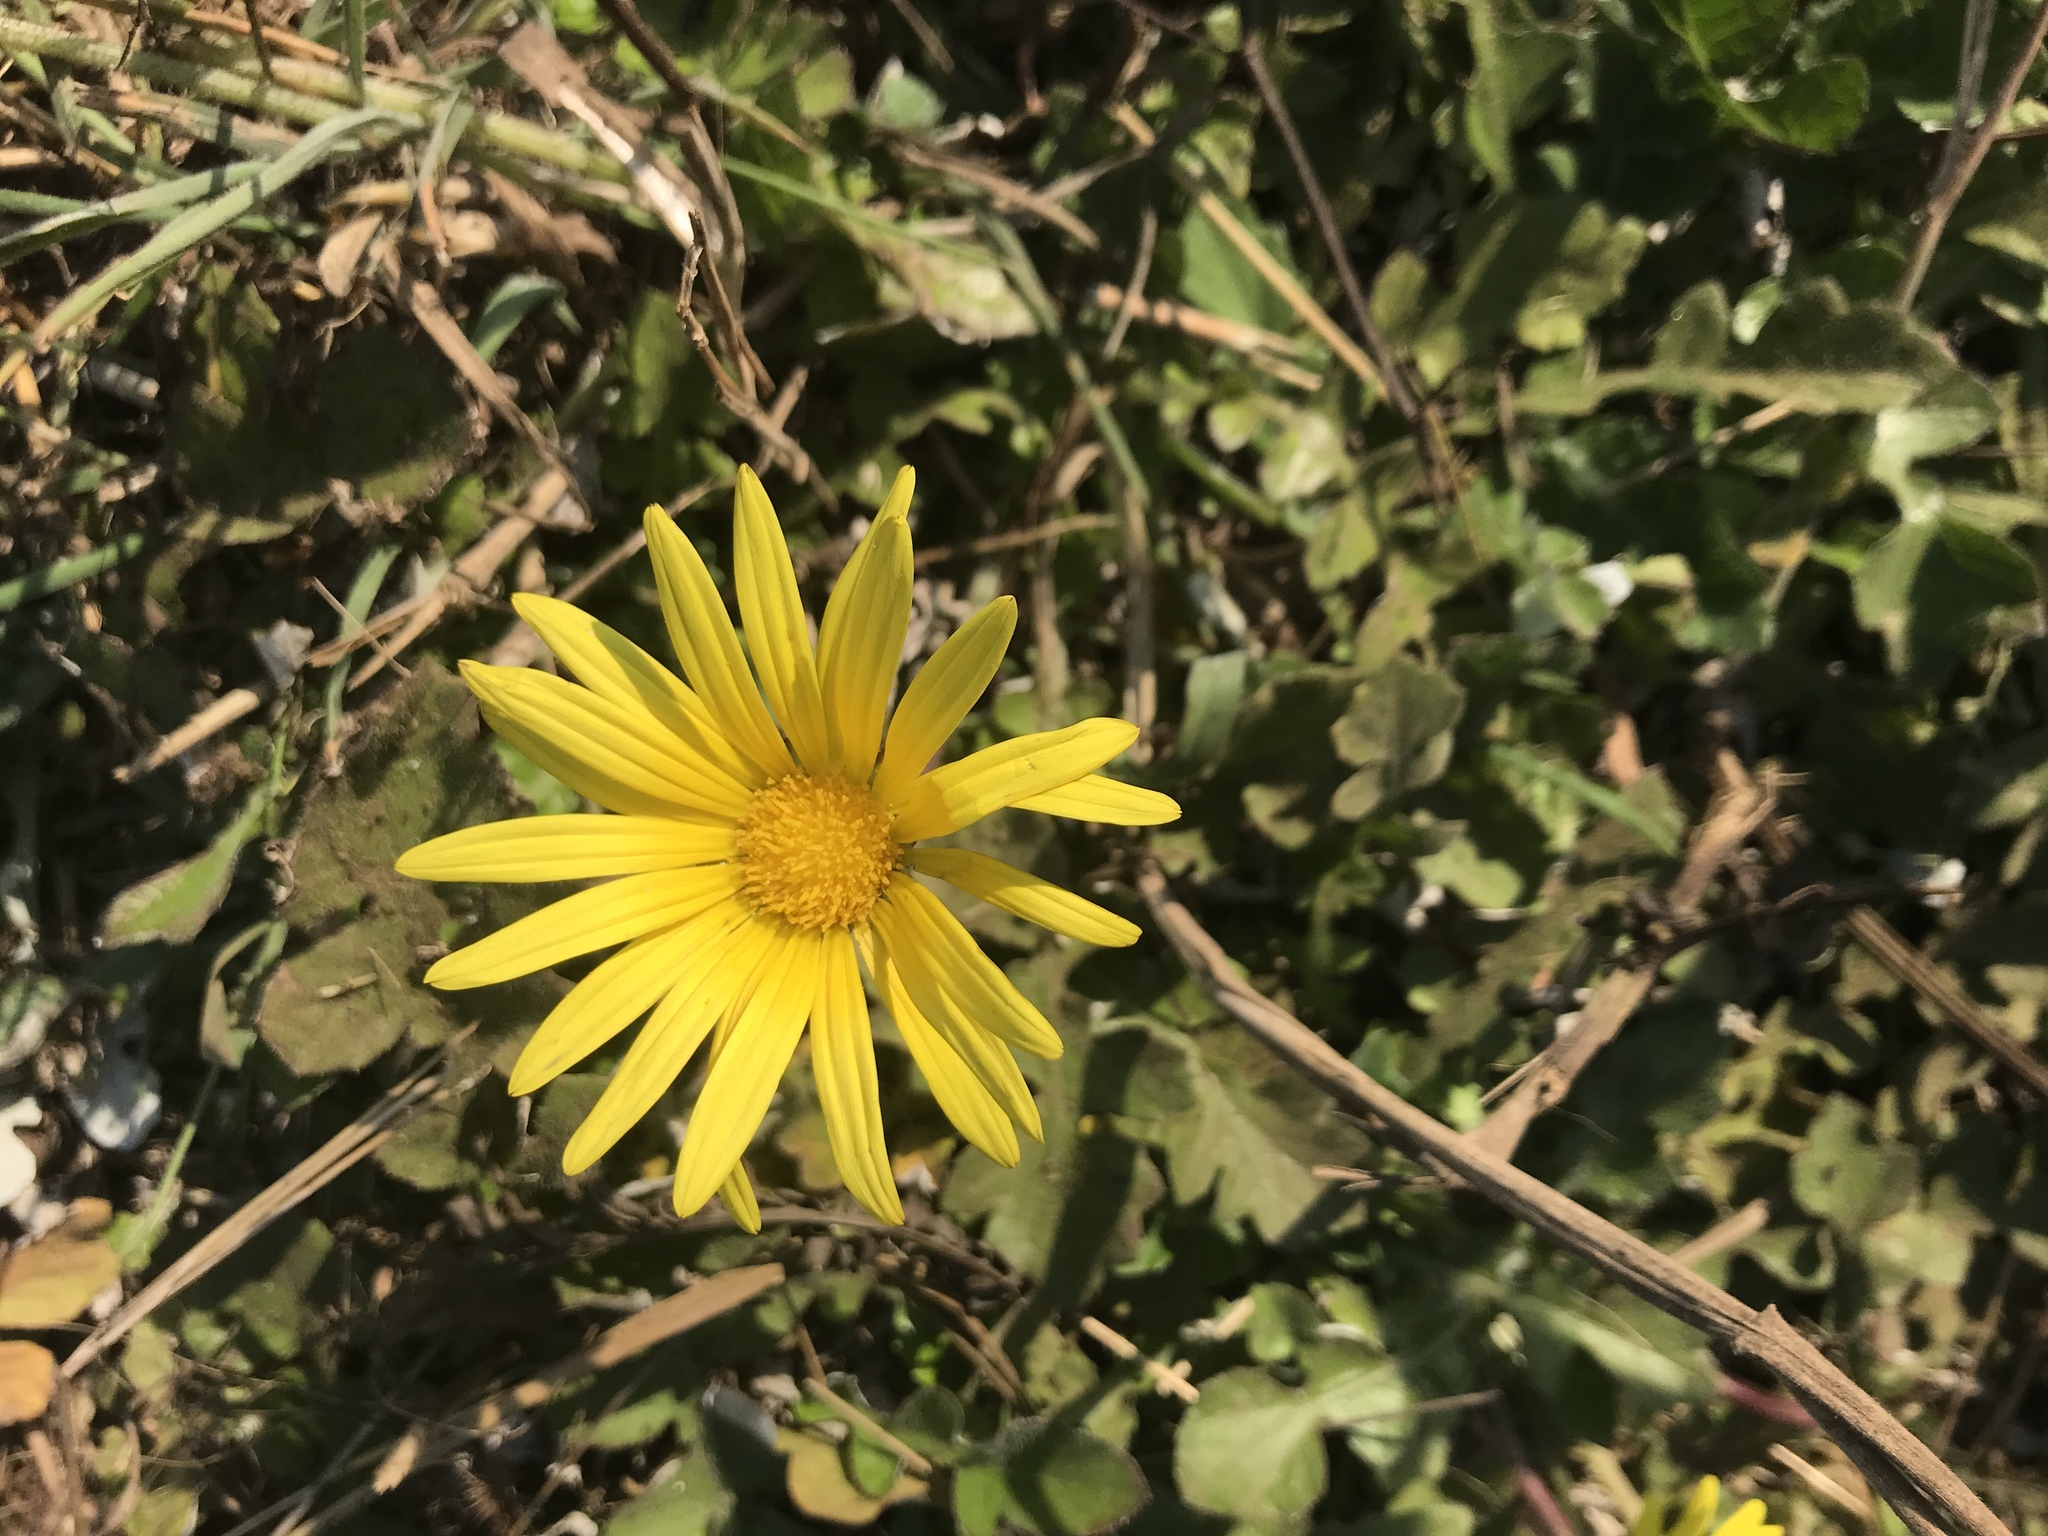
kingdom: Plantae
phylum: Tracheophyta
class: Magnoliopsida
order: Asterales
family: Asteraceae
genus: Arctotheca
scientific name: Arctotheca prostrata
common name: Capeweed
